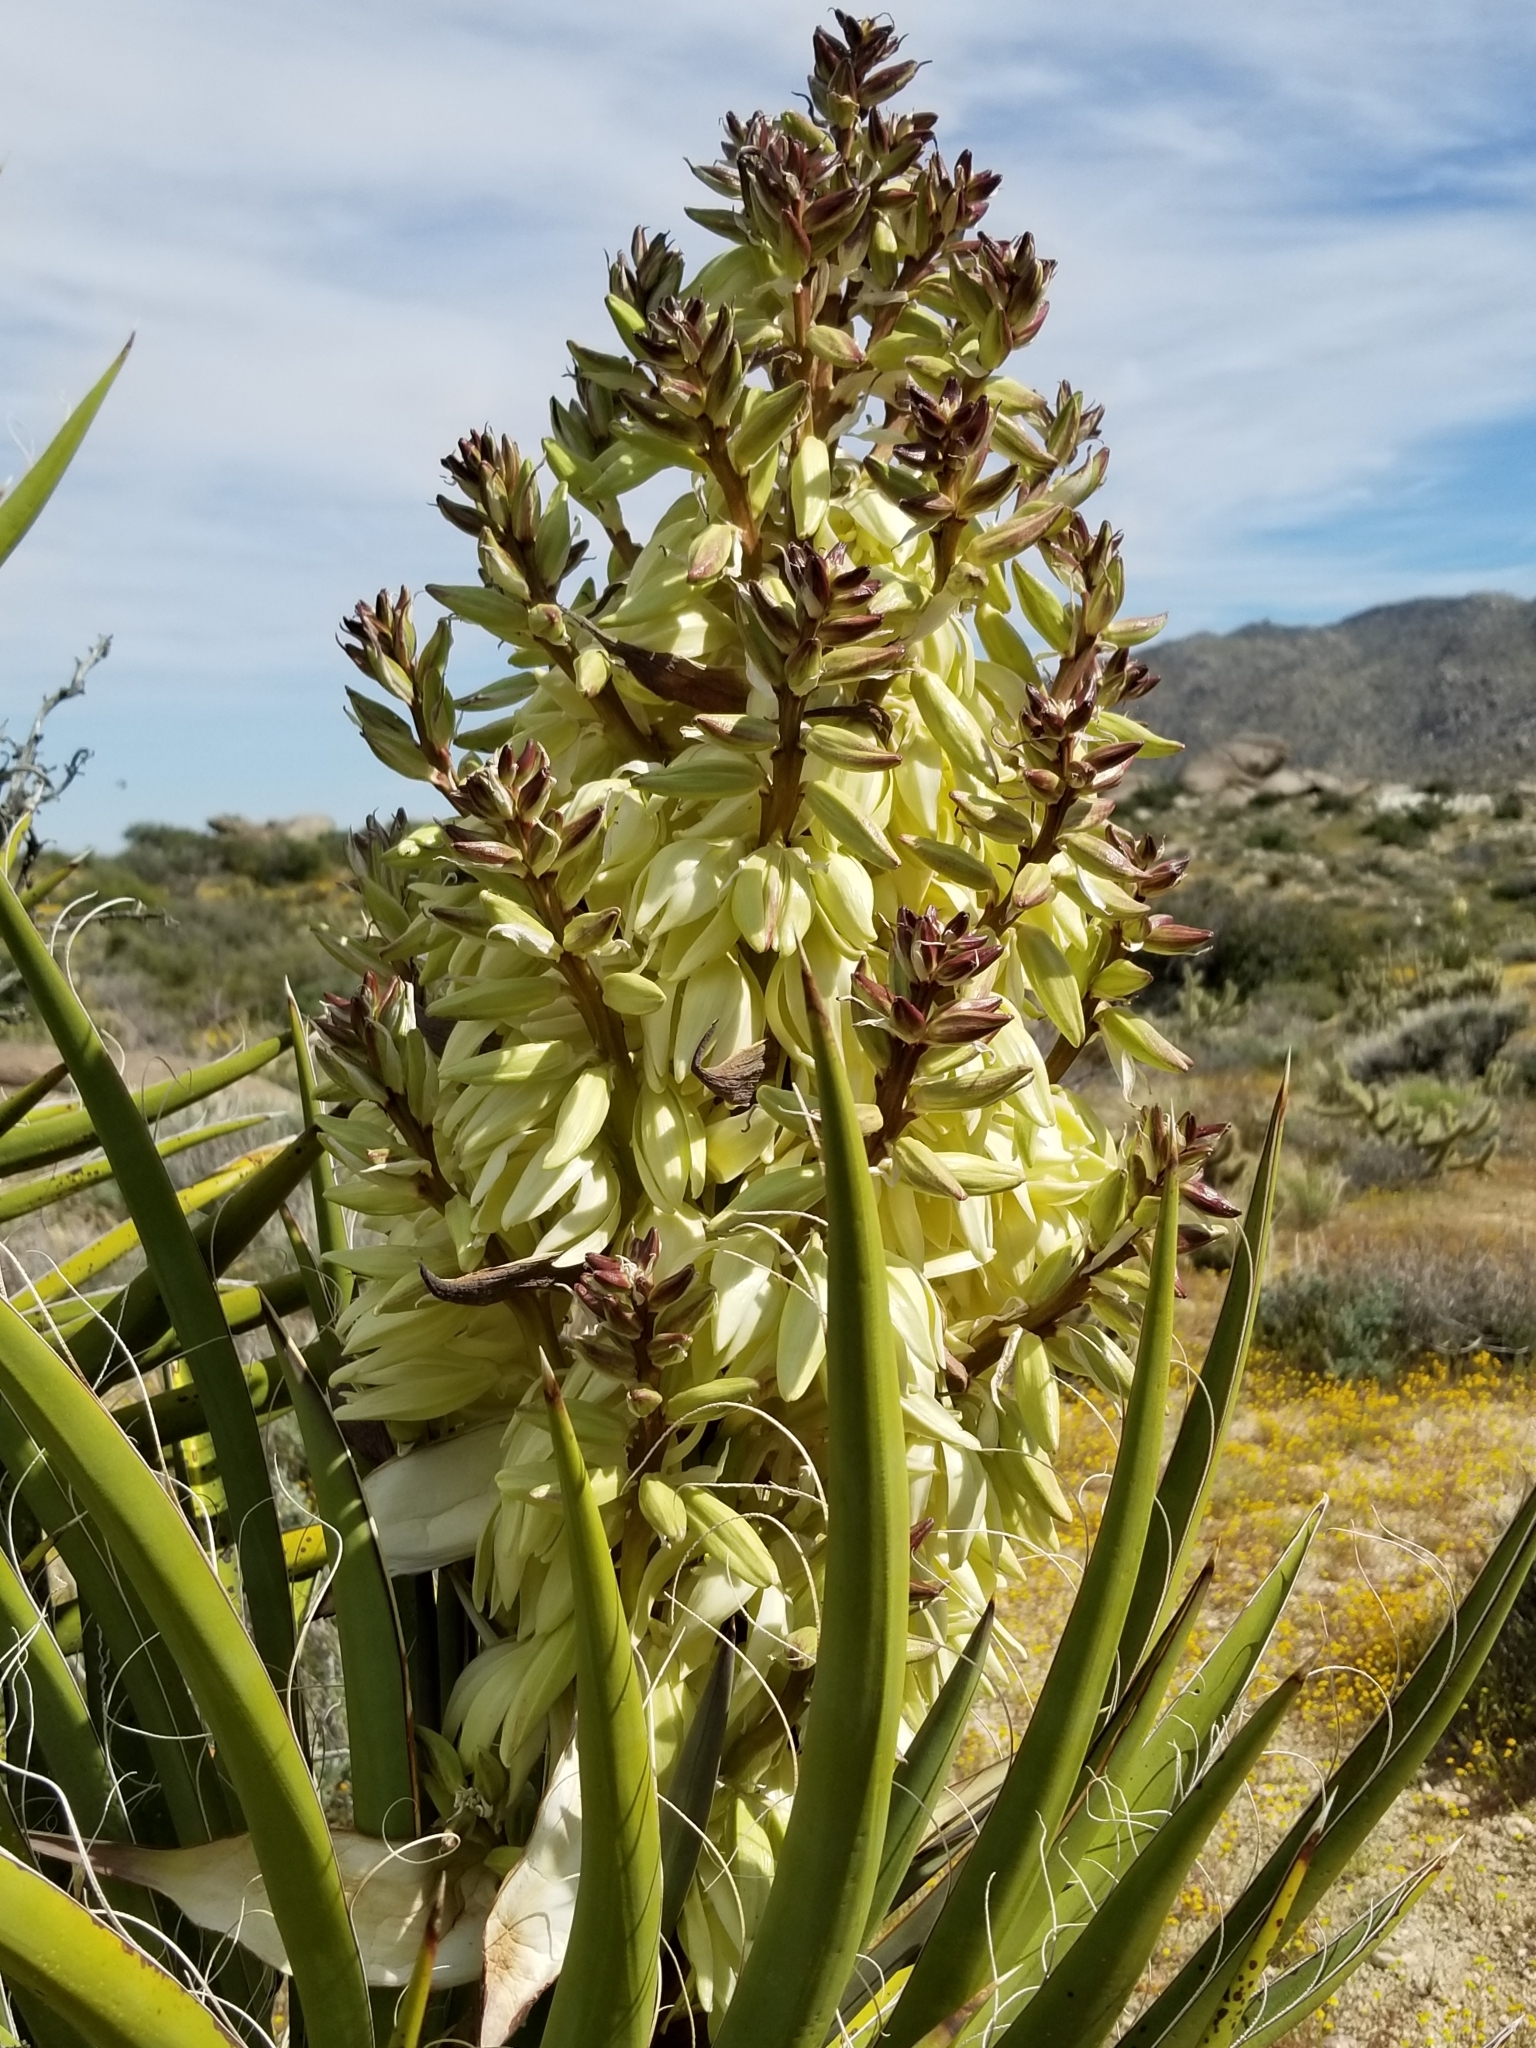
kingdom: Plantae
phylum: Tracheophyta
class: Liliopsida
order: Asparagales
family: Asparagaceae
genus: Yucca
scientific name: Yucca schidigera
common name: Mojave yucca
